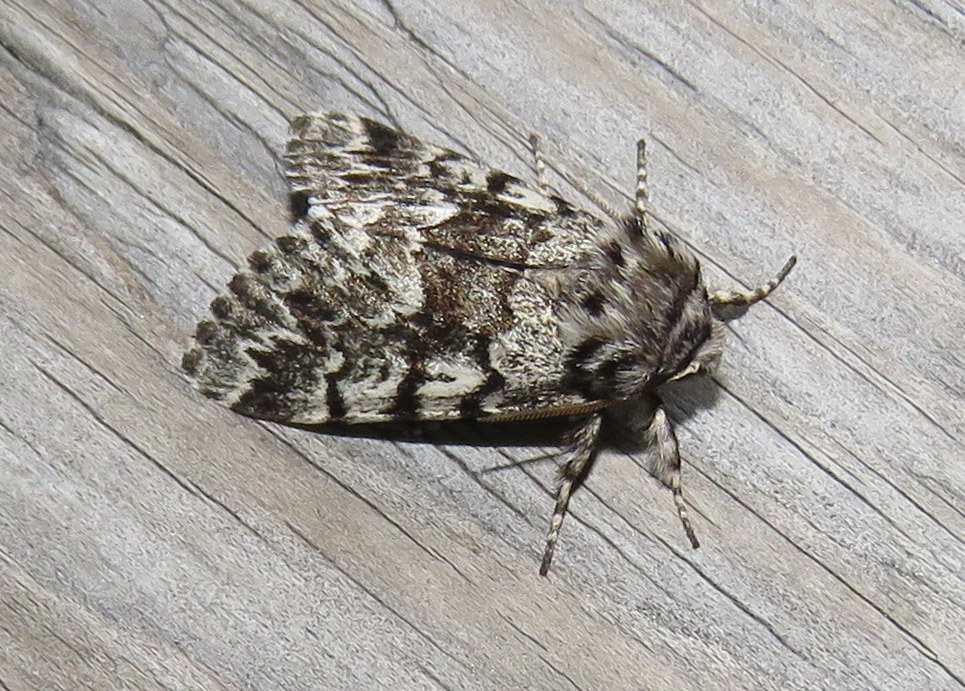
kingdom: Animalia
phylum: Arthropoda
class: Insecta
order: Lepidoptera
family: Noctuidae
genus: Panthea
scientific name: Panthea acronyctoides
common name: Black zigzag moth
